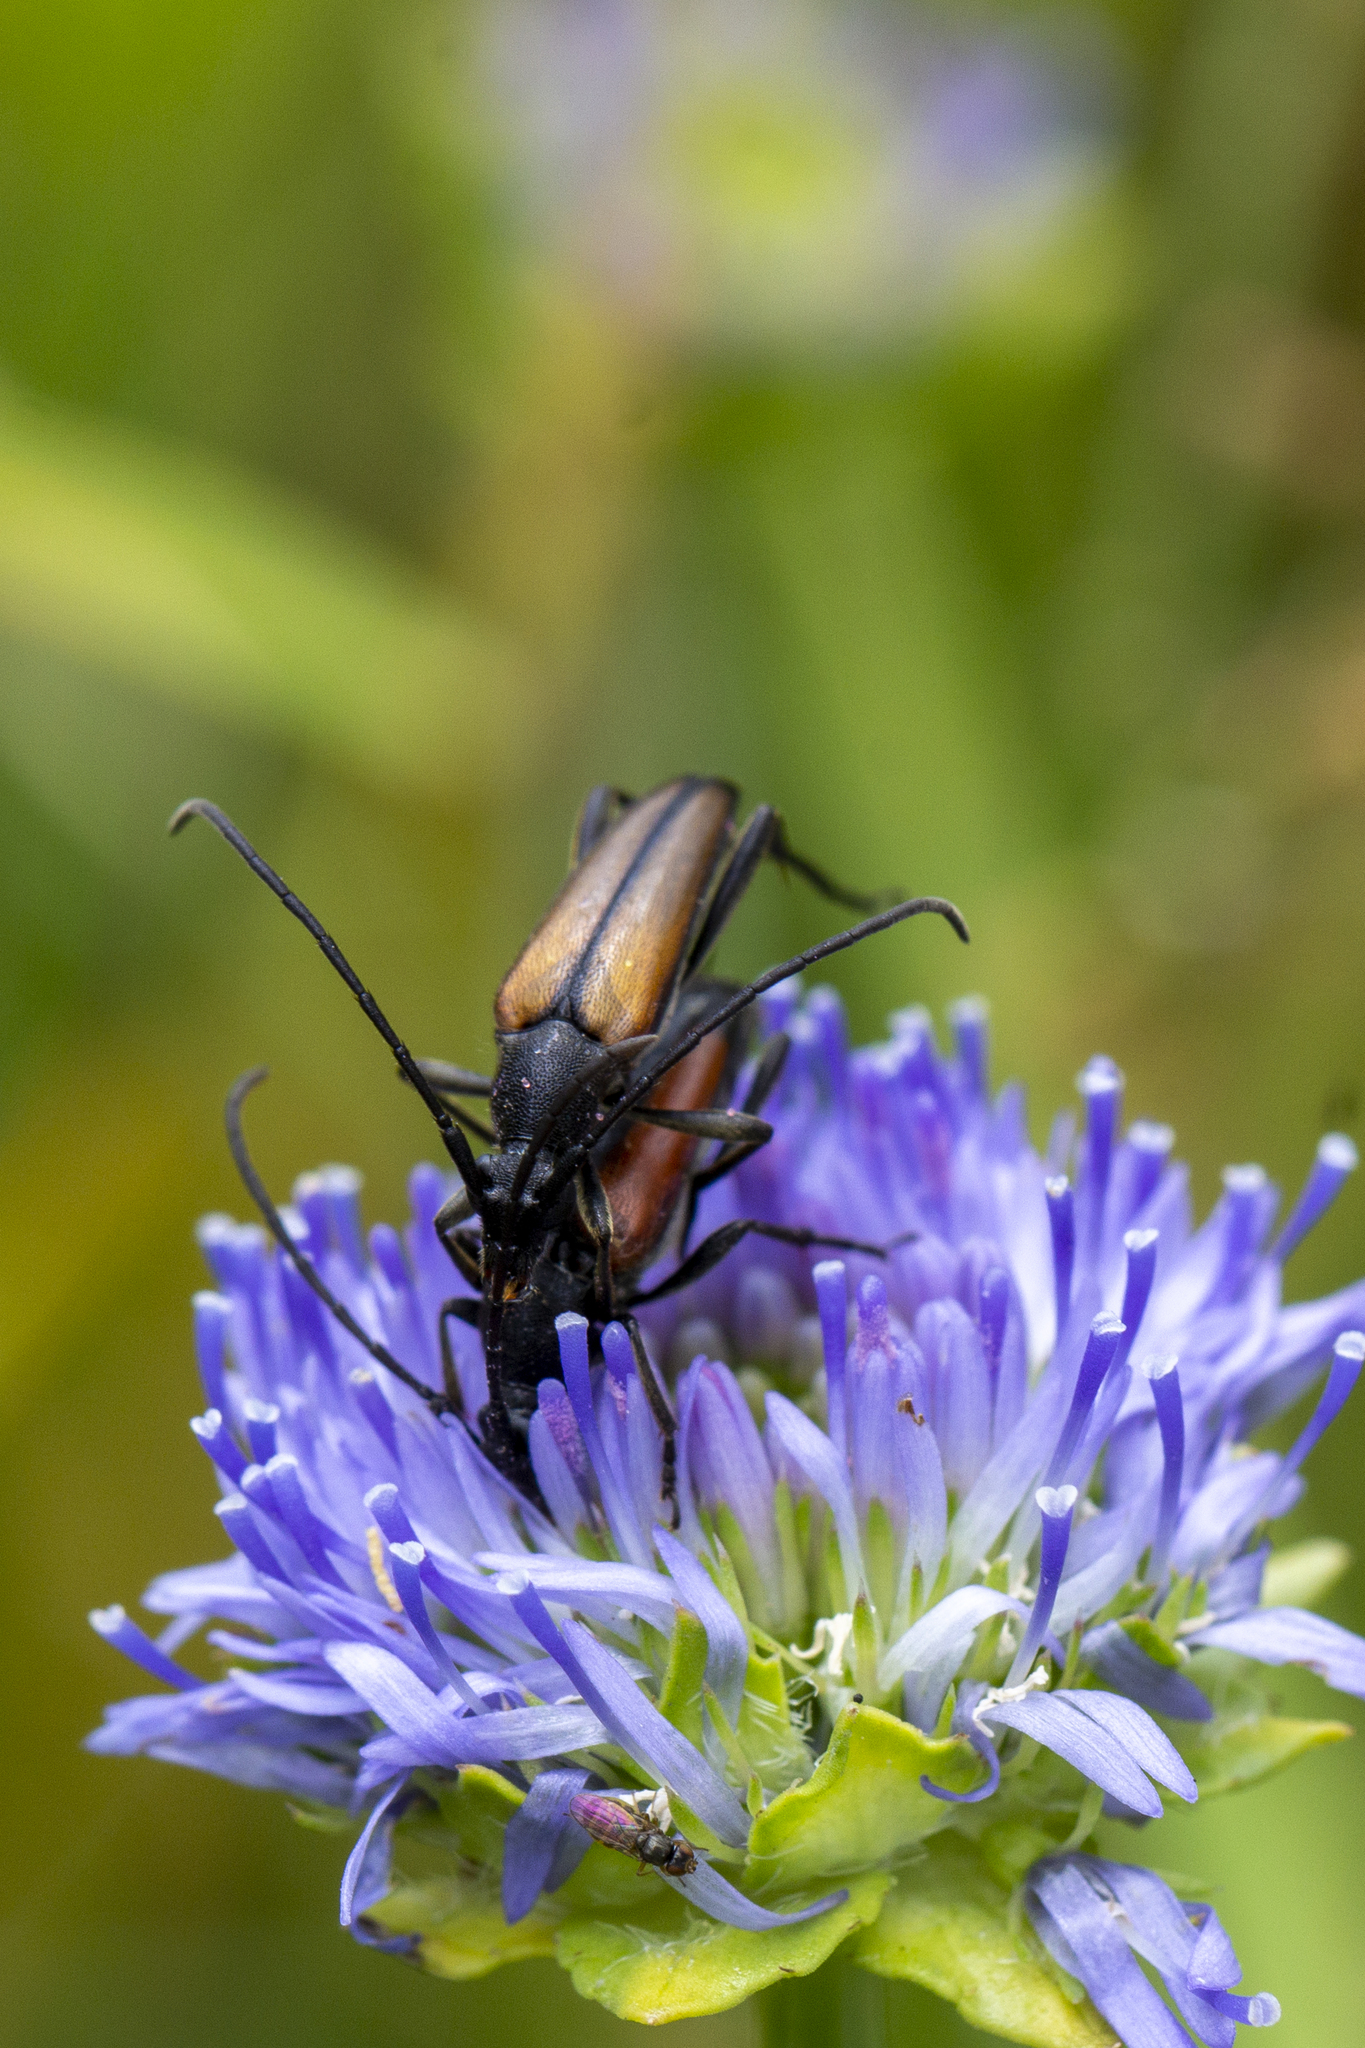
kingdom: Animalia
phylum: Arthropoda
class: Insecta
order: Coleoptera
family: Cerambycidae
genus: Stenurella
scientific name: Stenurella melanura
